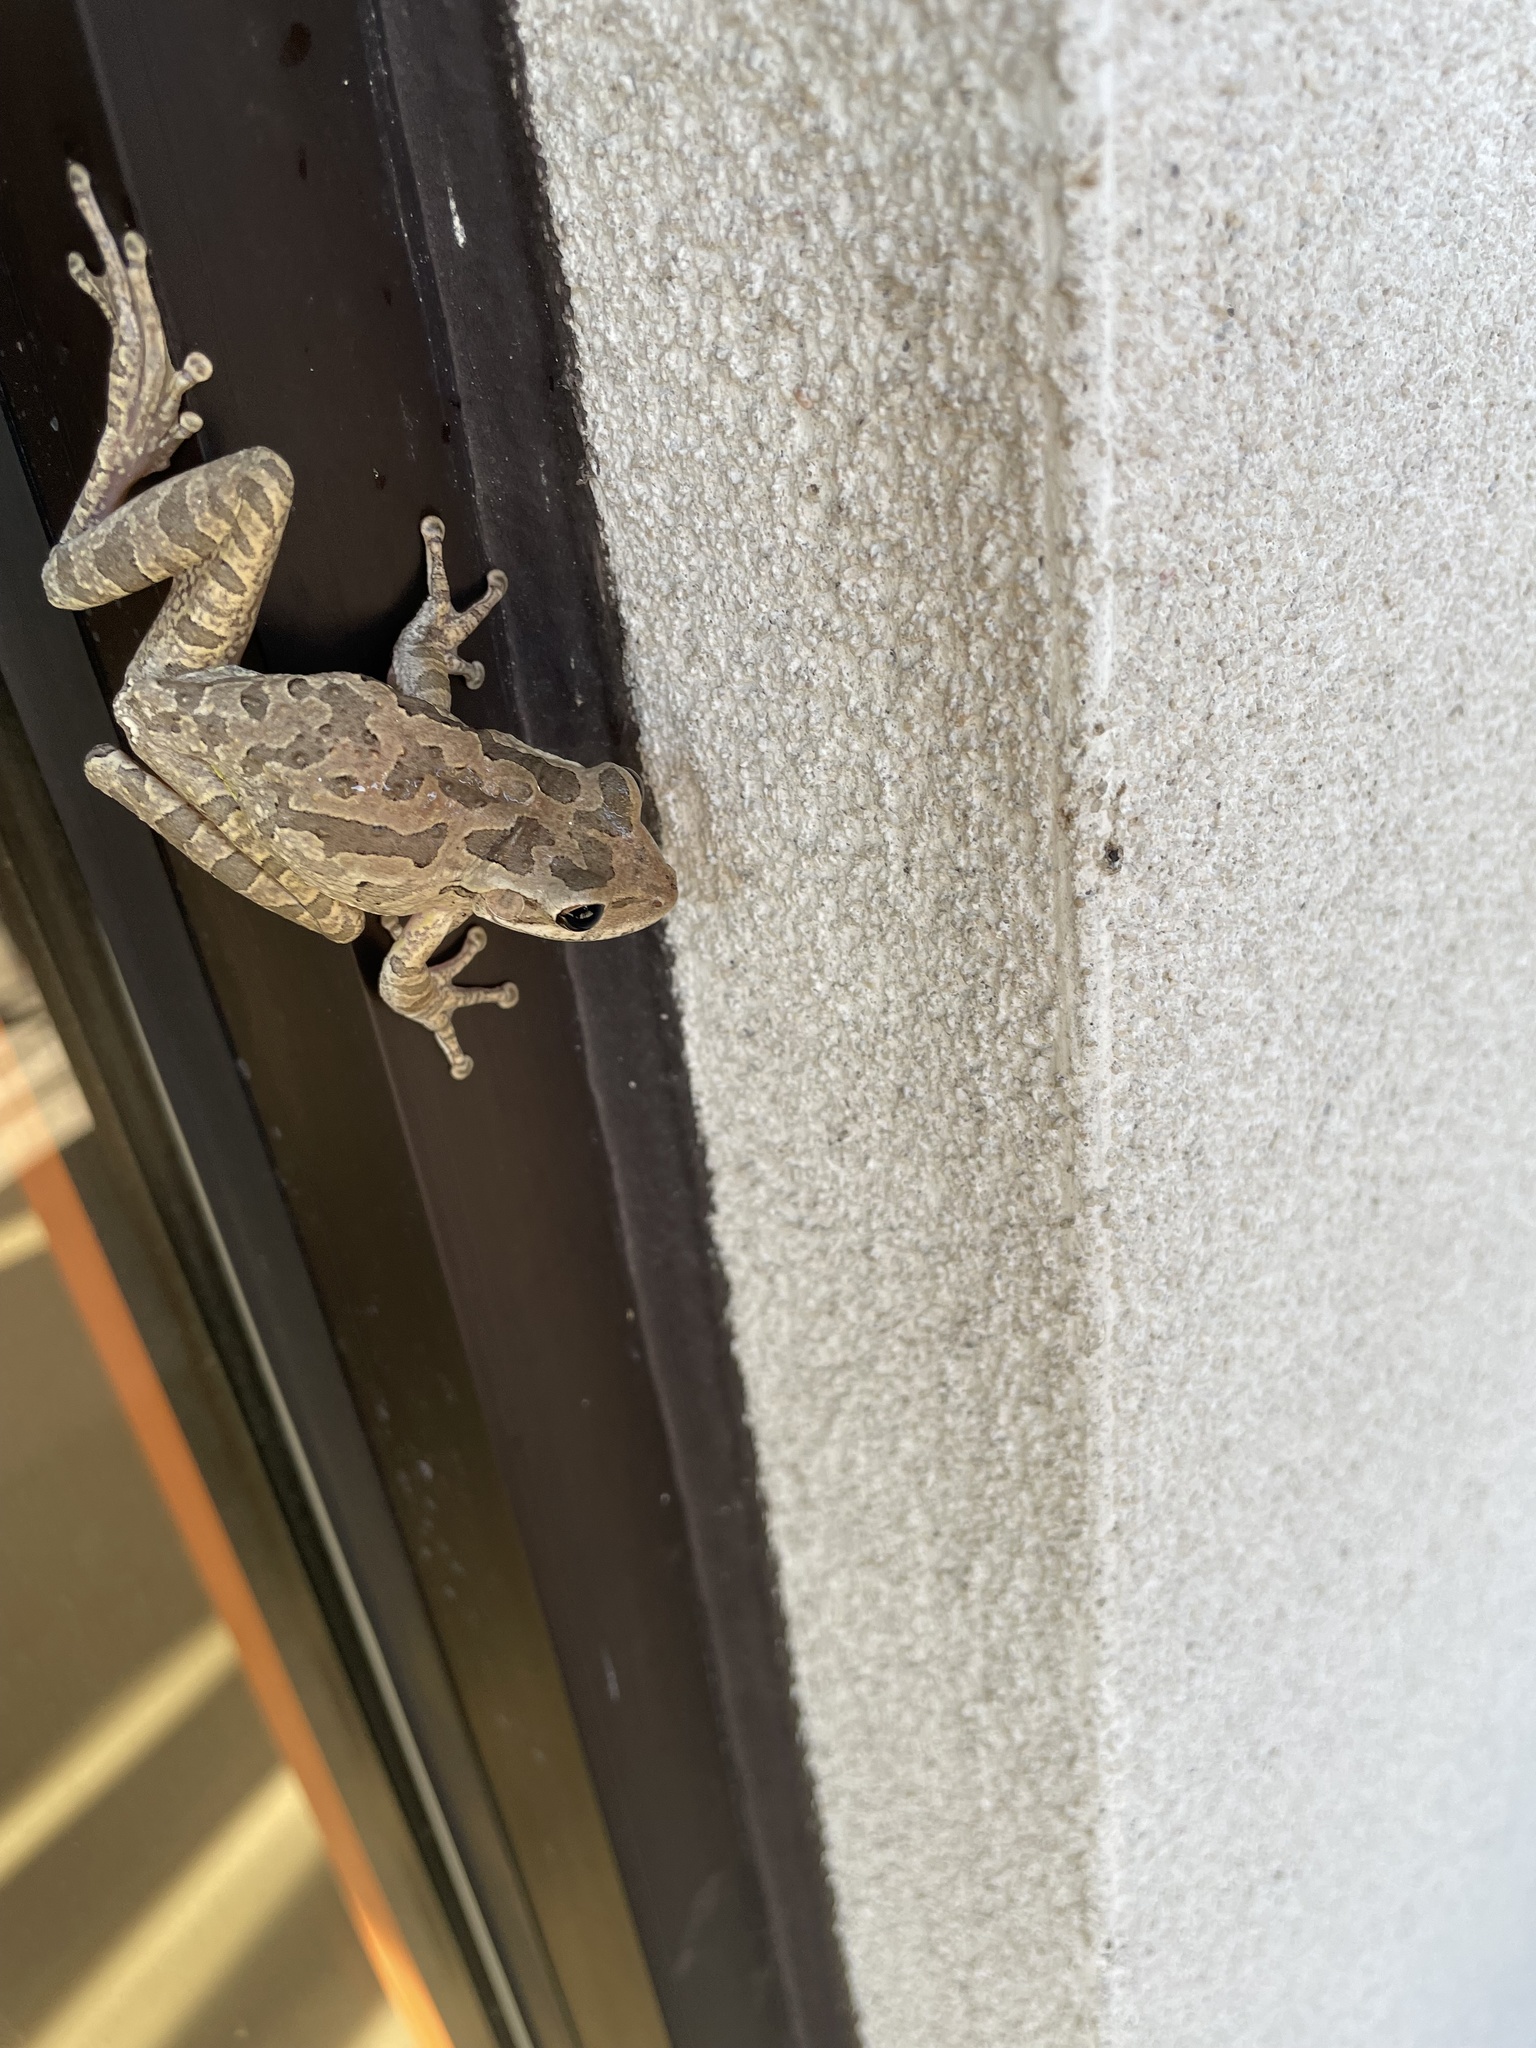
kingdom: Animalia
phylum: Chordata
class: Amphibia
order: Anura
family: Hylidae
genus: Osteopilus
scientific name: Osteopilus septentrionalis
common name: Cuban treefrog
